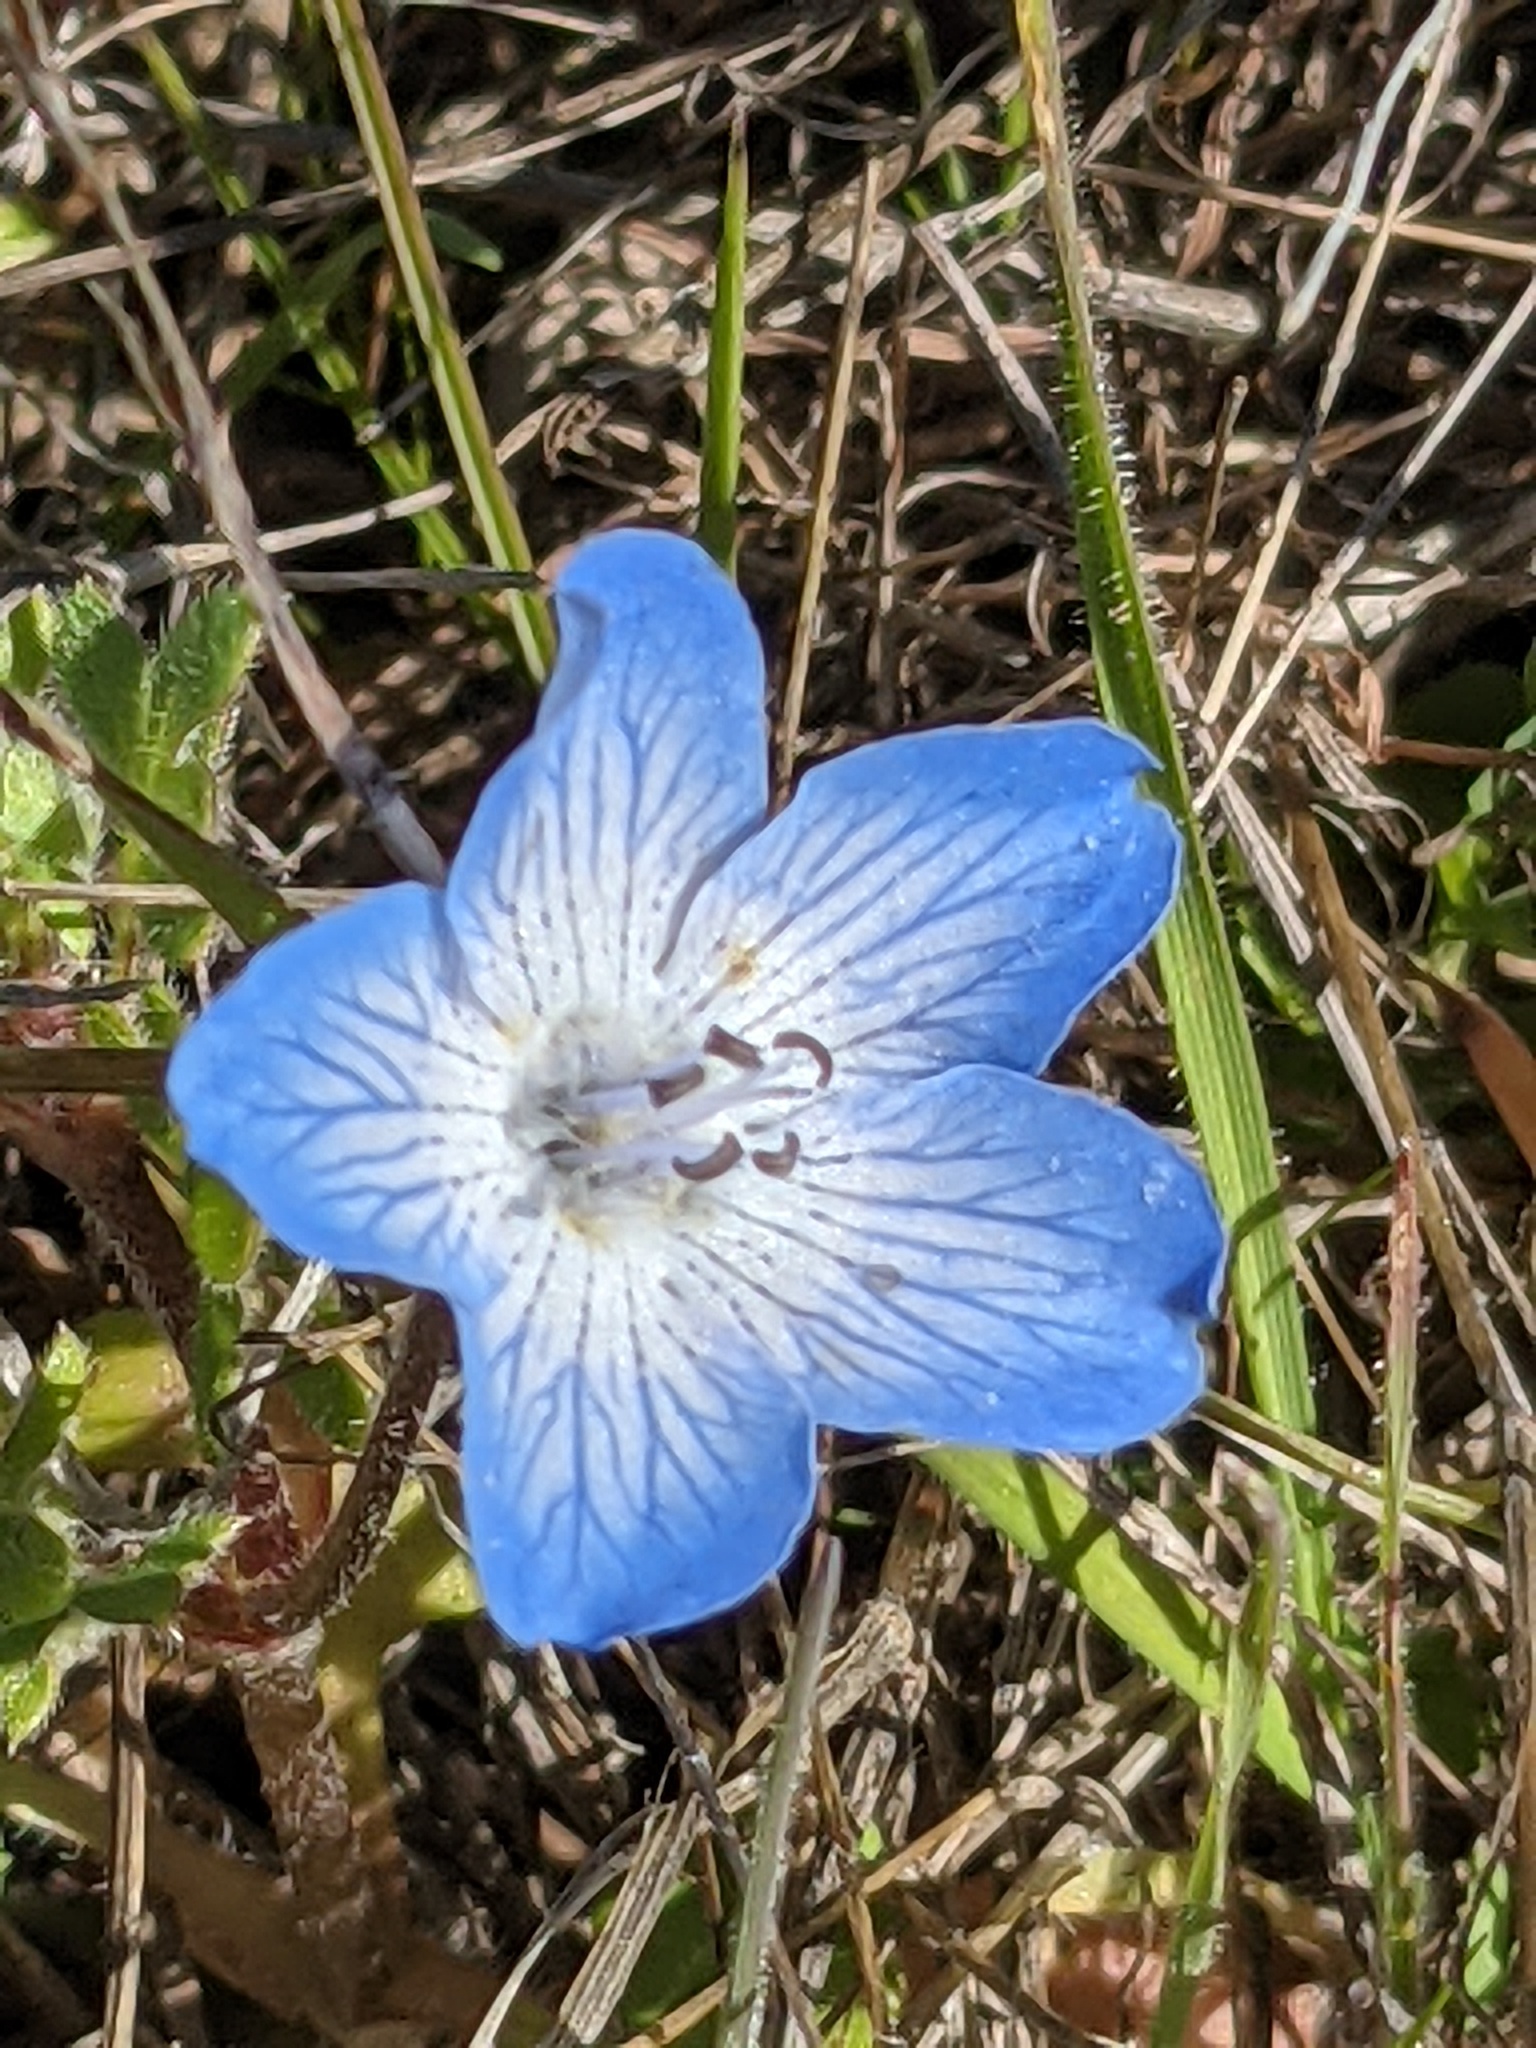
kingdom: Plantae
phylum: Tracheophyta
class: Magnoliopsida
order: Boraginales
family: Hydrophyllaceae
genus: Nemophila
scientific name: Nemophila menziesii
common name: Baby's-blue-eyes
